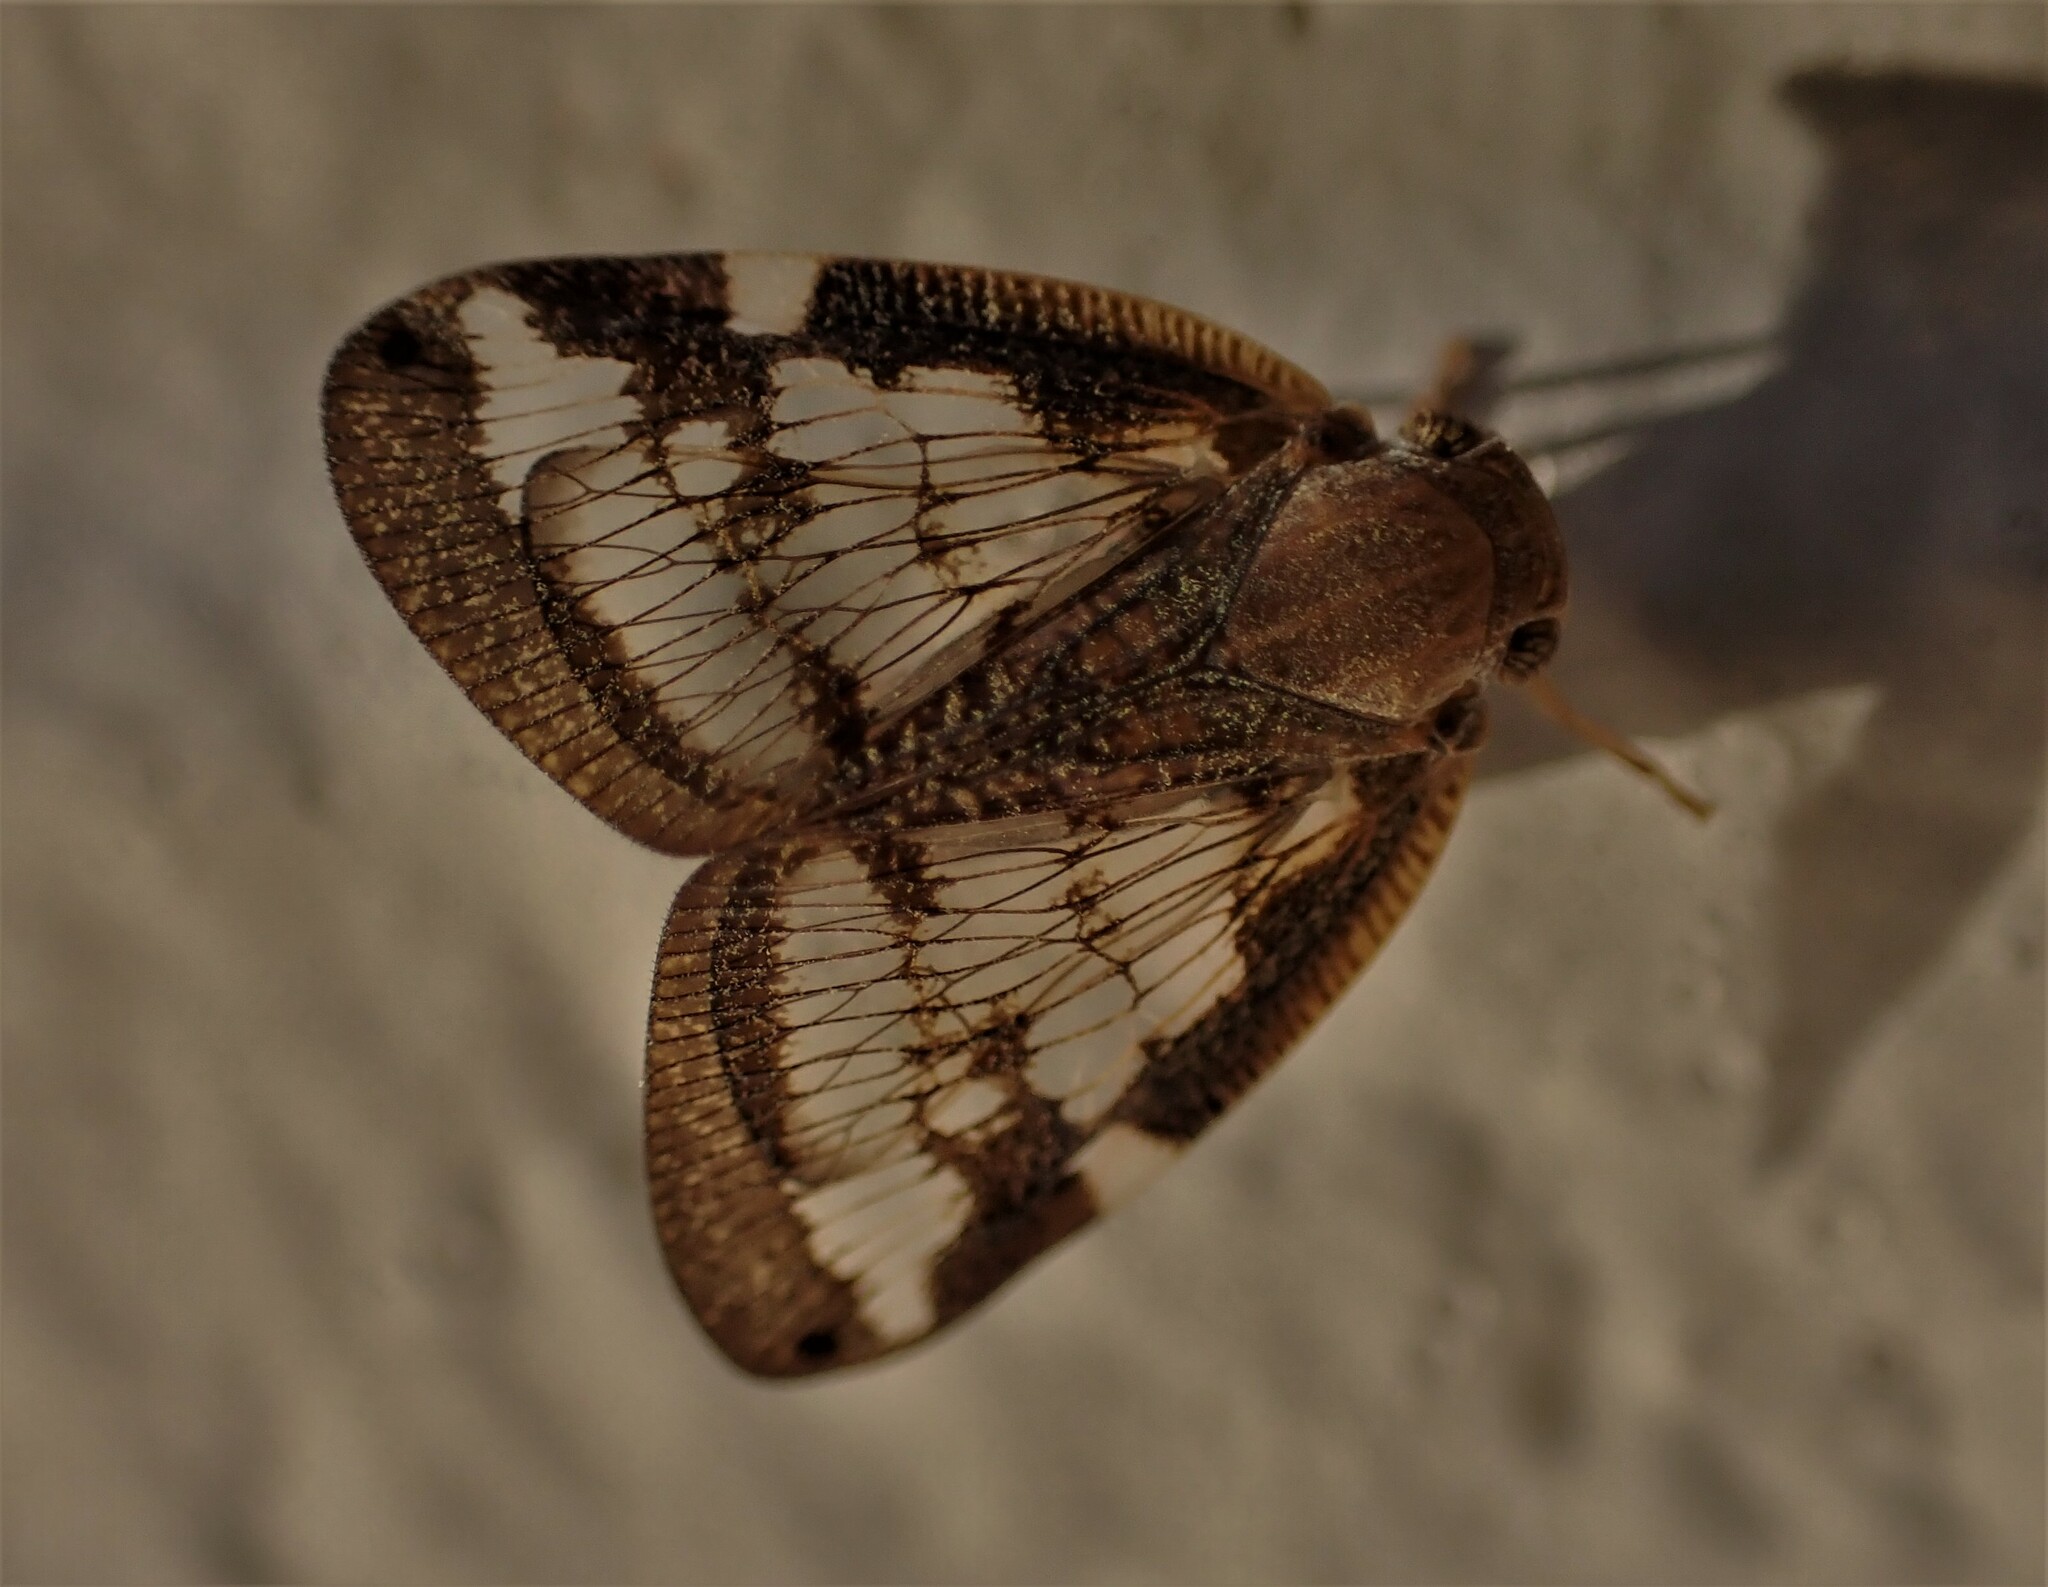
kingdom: Animalia
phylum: Arthropoda
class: Insecta
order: Hemiptera
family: Ricaniidae
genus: Scolypopa
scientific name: Scolypopa australis
